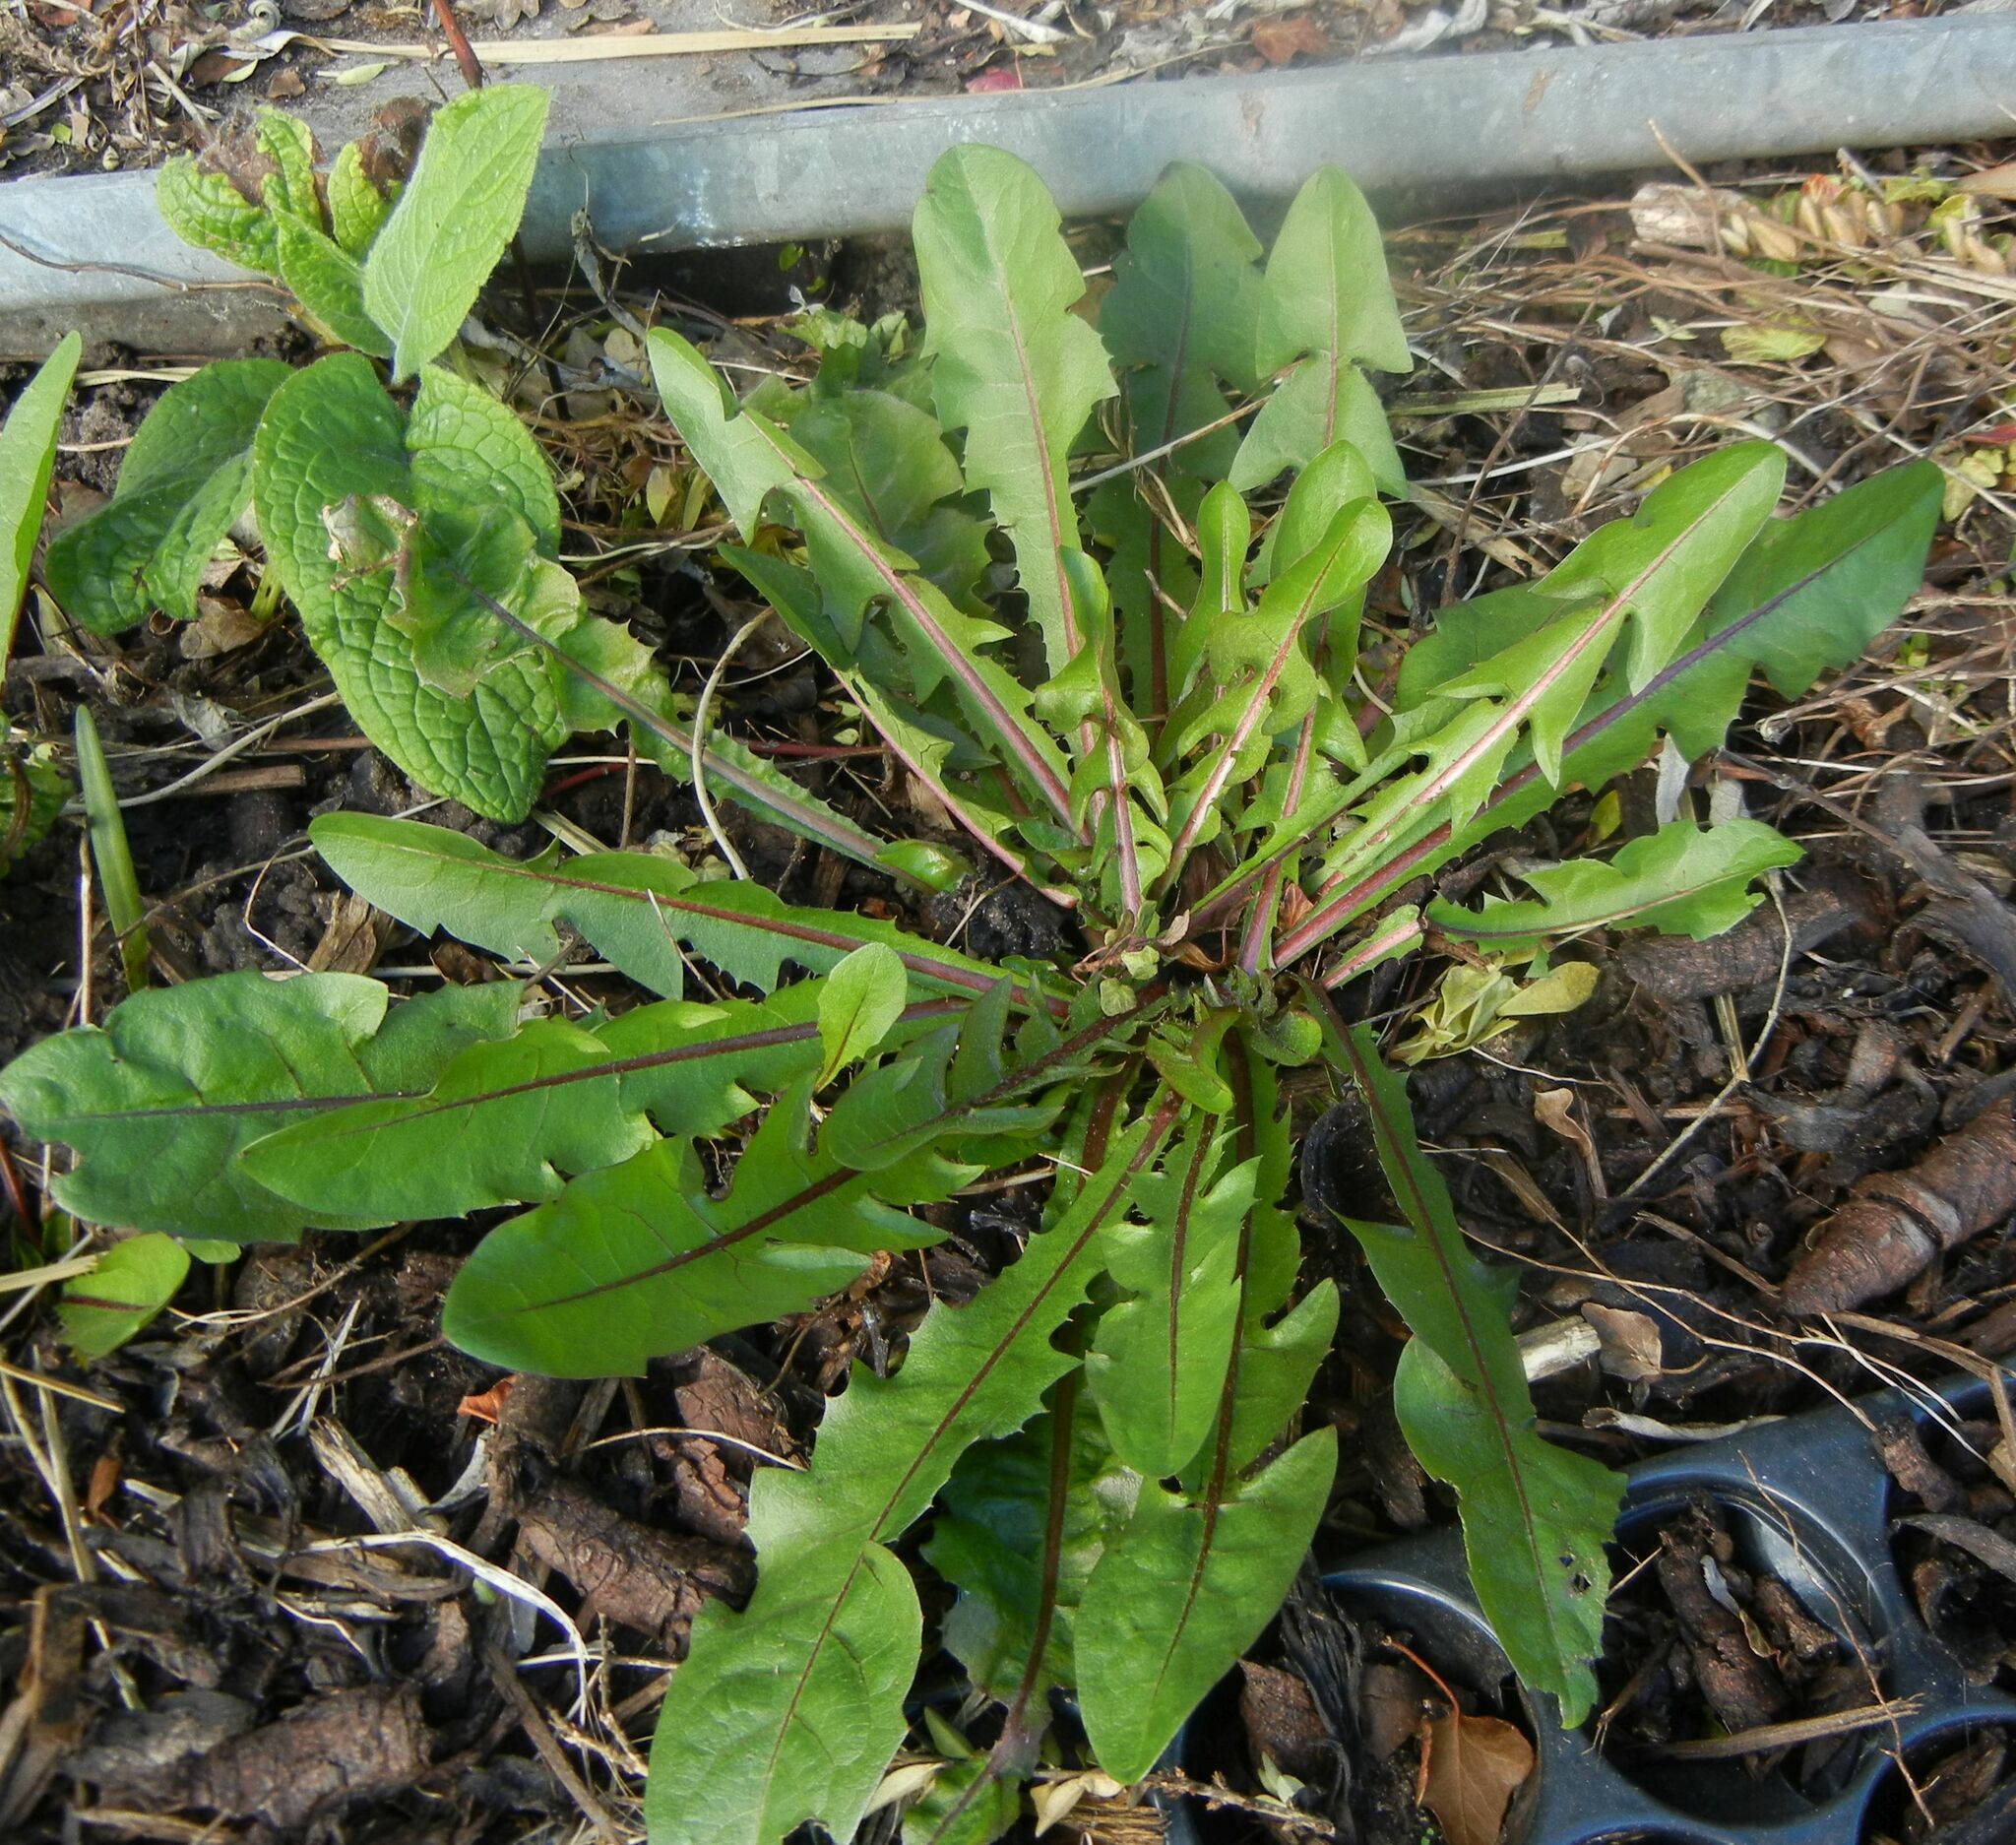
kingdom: Plantae
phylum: Tracheophyta
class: Magnoliopsida
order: Asterales
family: Asteraceae
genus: Taraxacum
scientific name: Taraxacum officinale
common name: Common dandelion
